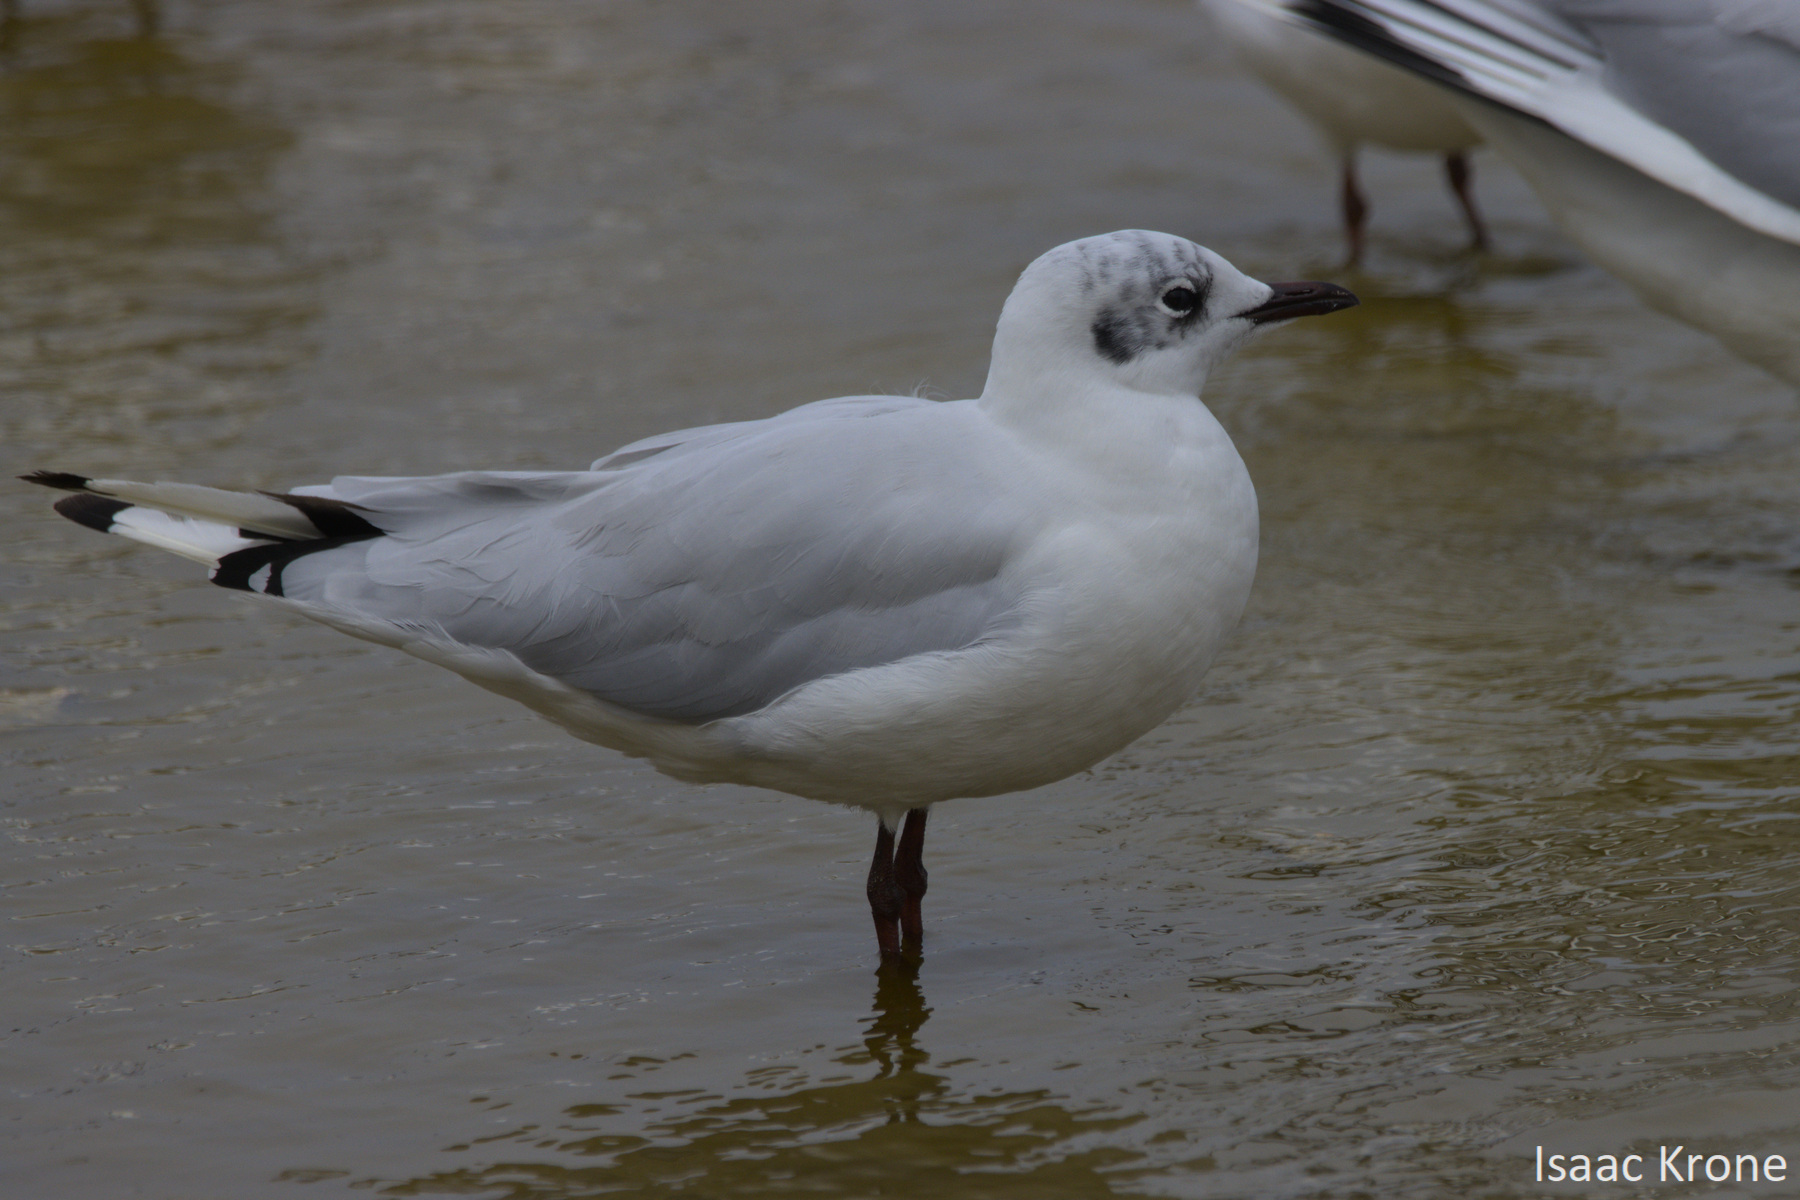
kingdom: Animalia
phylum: Chordata
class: Aves
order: Charadriiformes
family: Laridae
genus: Chroicocephalus
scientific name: Chroicocephalus serranus
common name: Andean gull
